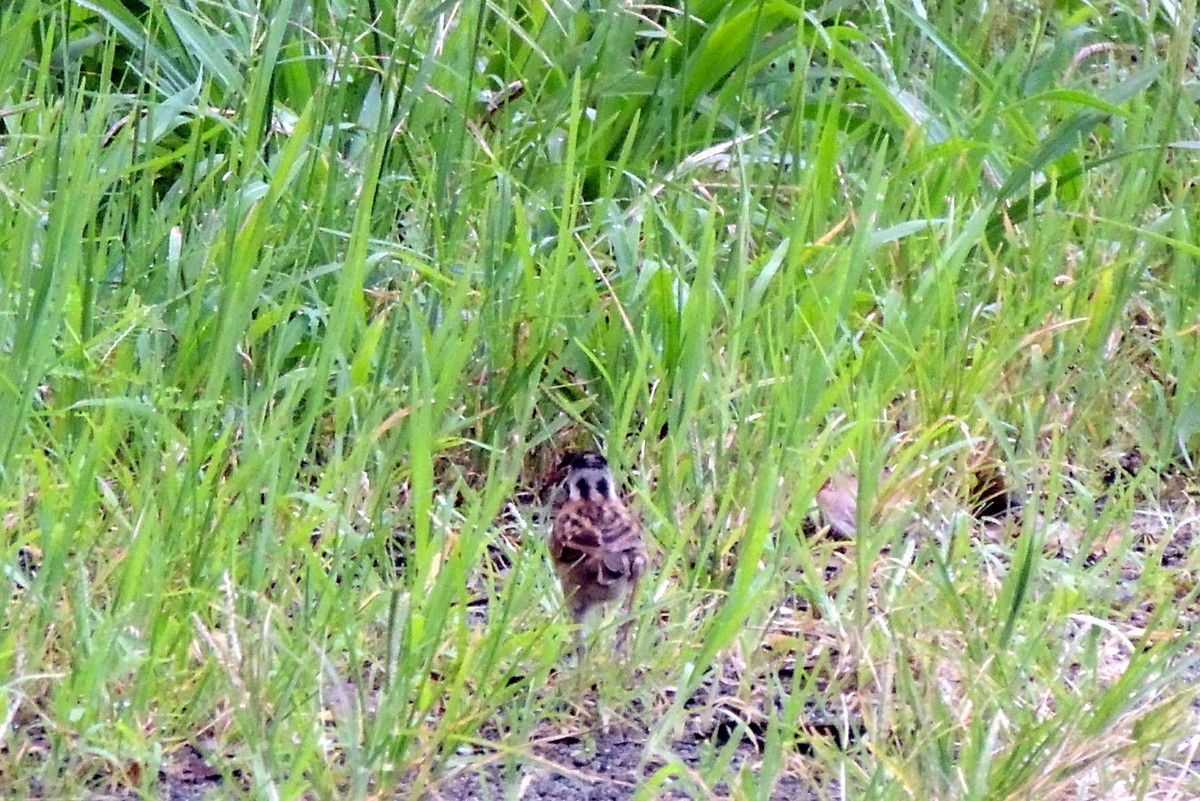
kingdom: Animalia
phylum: Chordata
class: Aves
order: Passeriformes
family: Passerellidae
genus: Zonotrichia
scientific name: Zonotrichia capensis
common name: Rufous-collared sparrow
